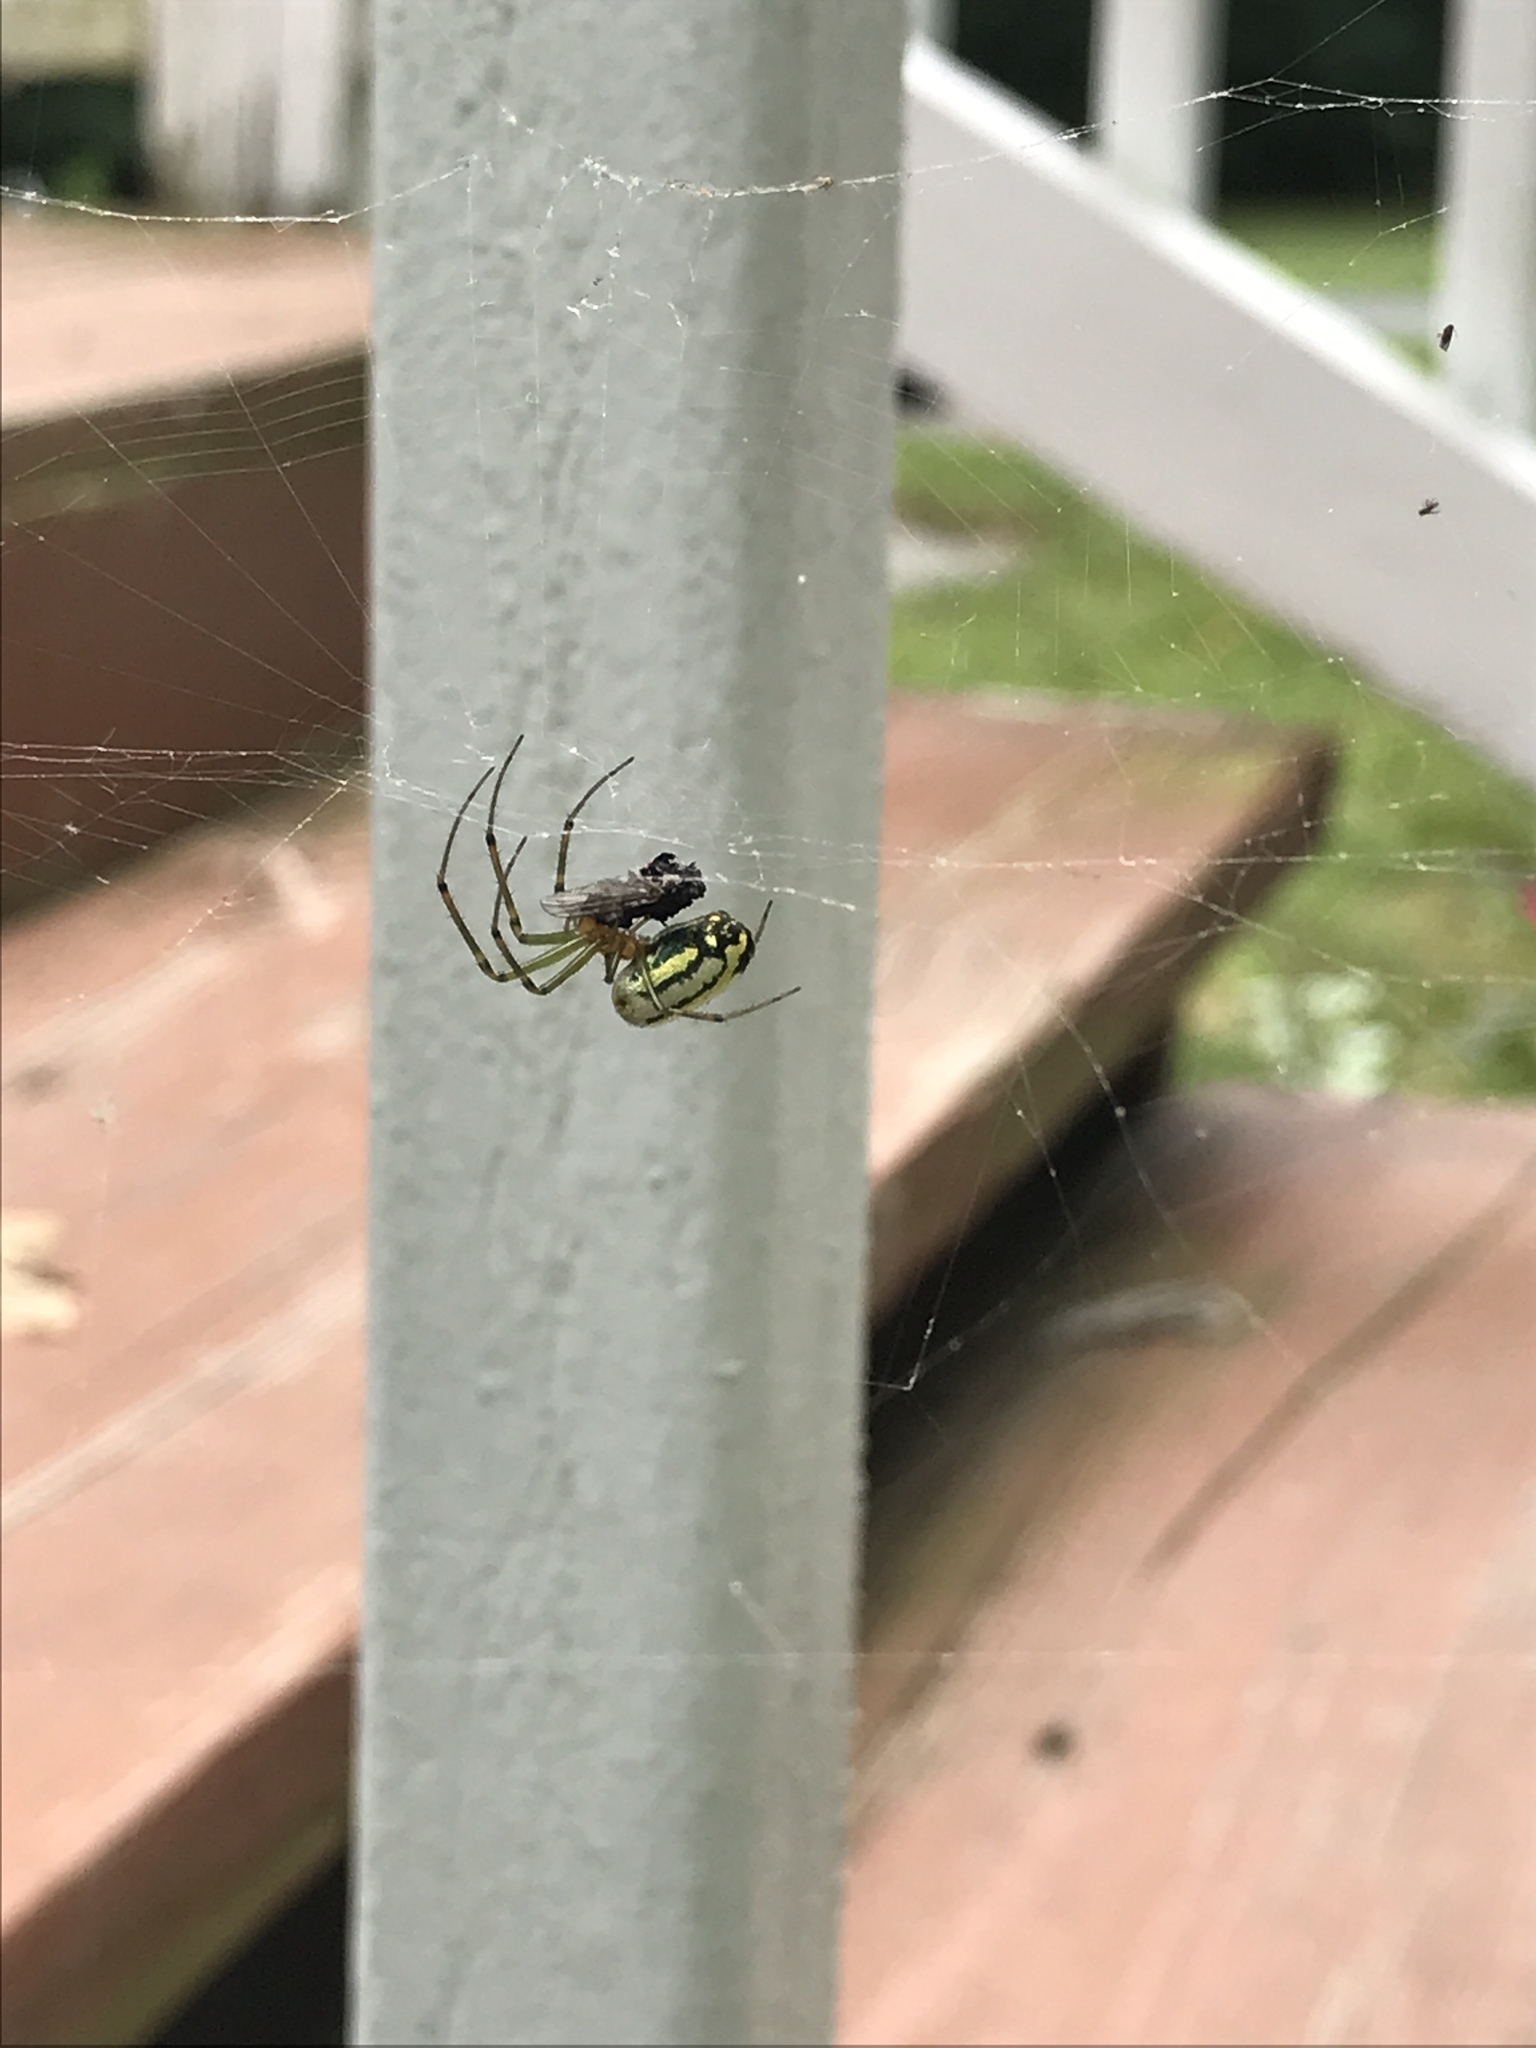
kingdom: Animalia
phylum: Arthropoda
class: Arachnida
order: Araneae
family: Tetragnathidae
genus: Leucauge
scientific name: Leucauge venusta
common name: Longjawed orb weavers
